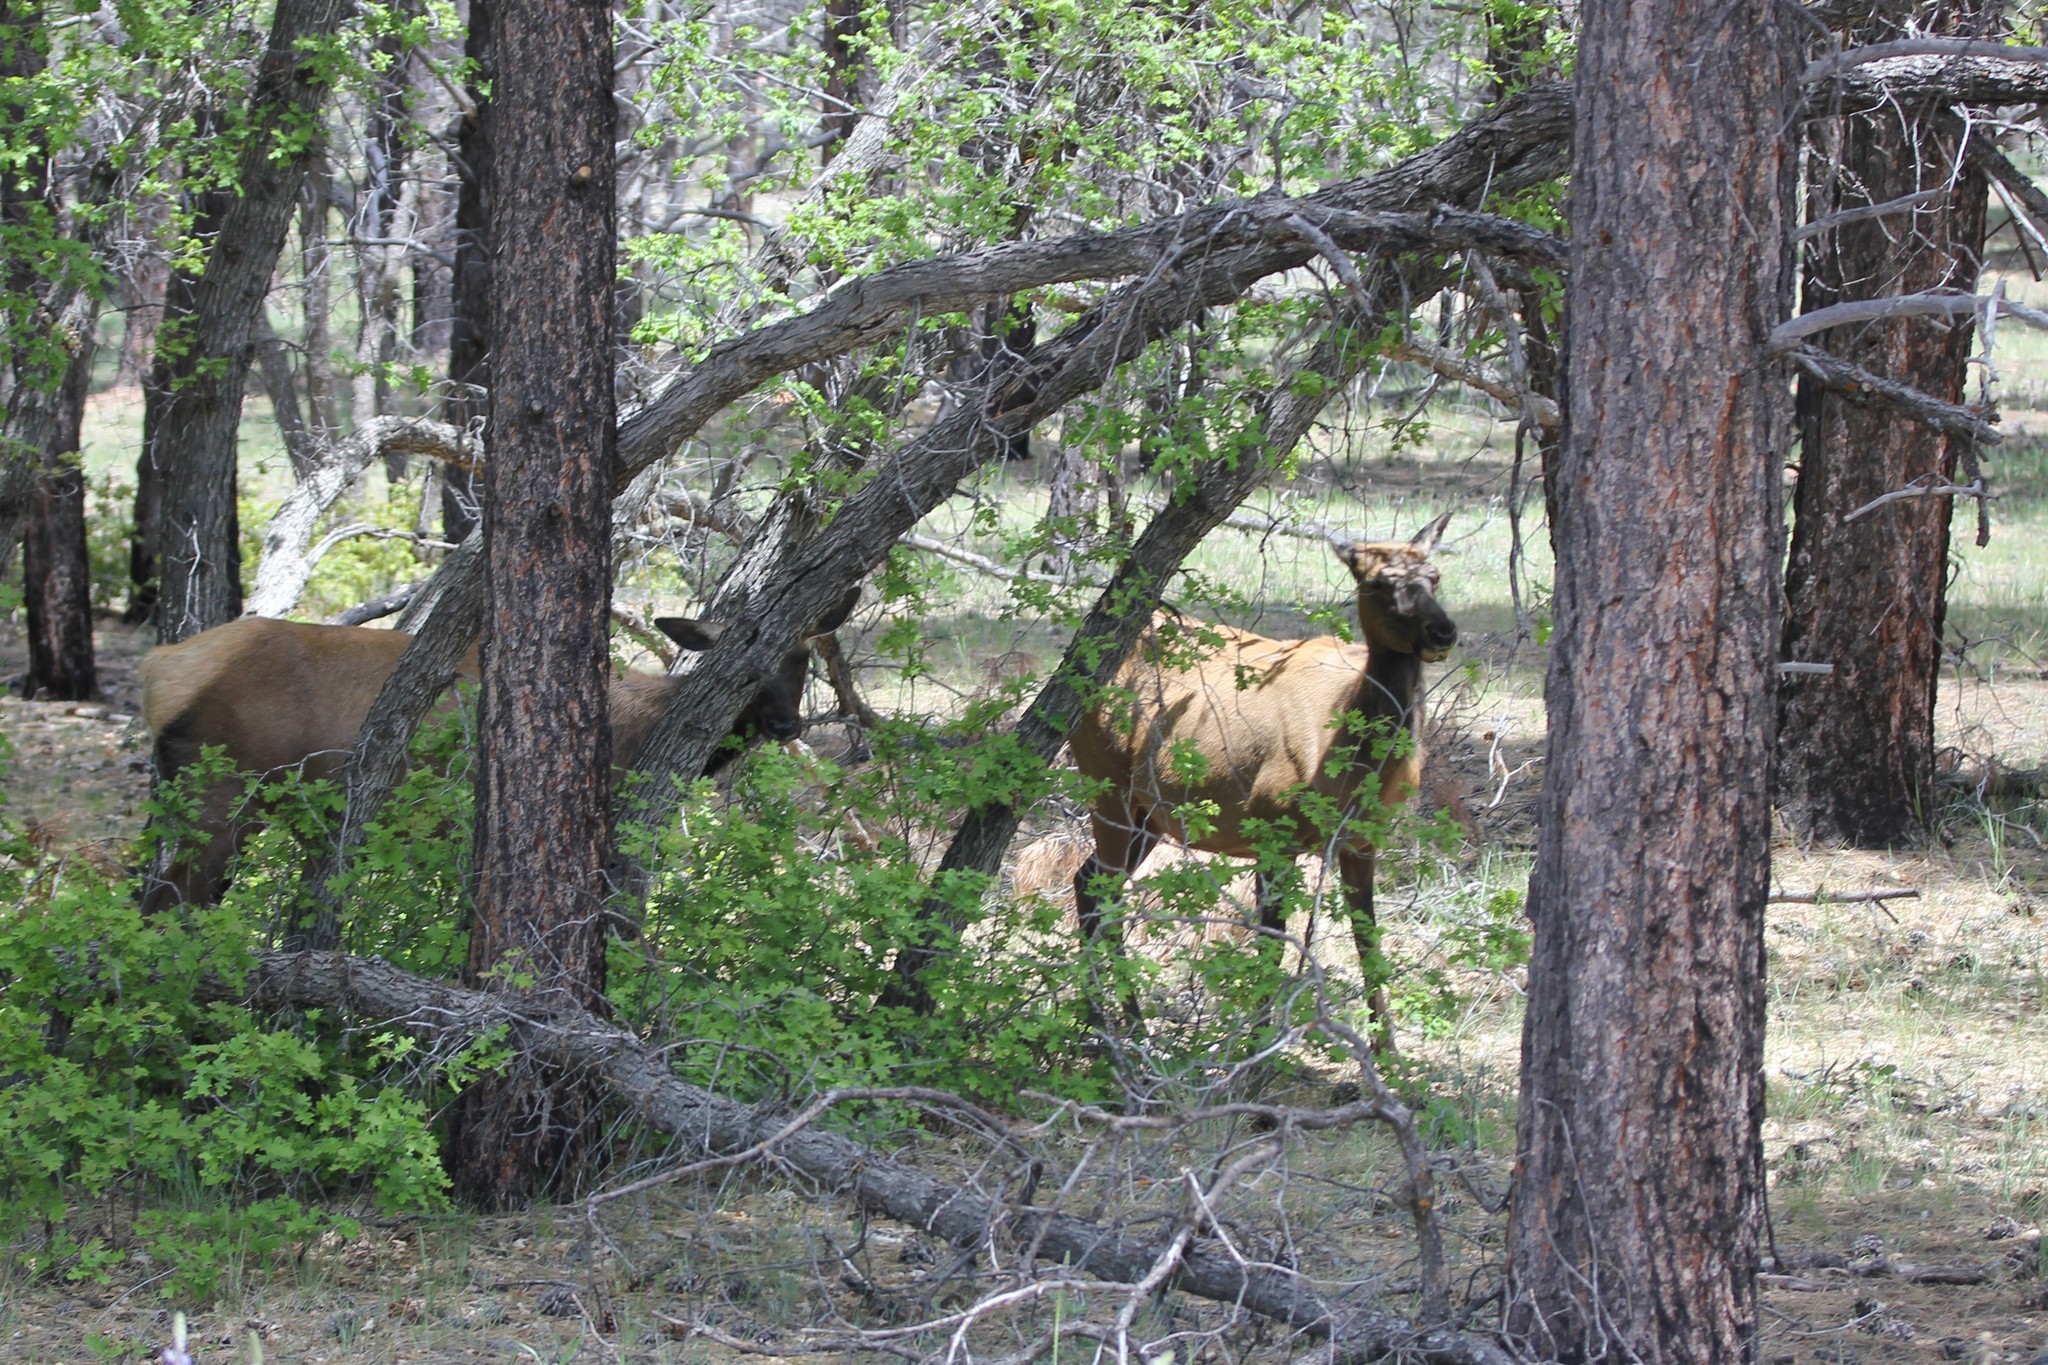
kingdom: Animalia
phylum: Chordata
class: Mammalia
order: Artiodactyla
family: Cervidae
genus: Cervus
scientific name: Cervus elaphus
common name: Red deer
